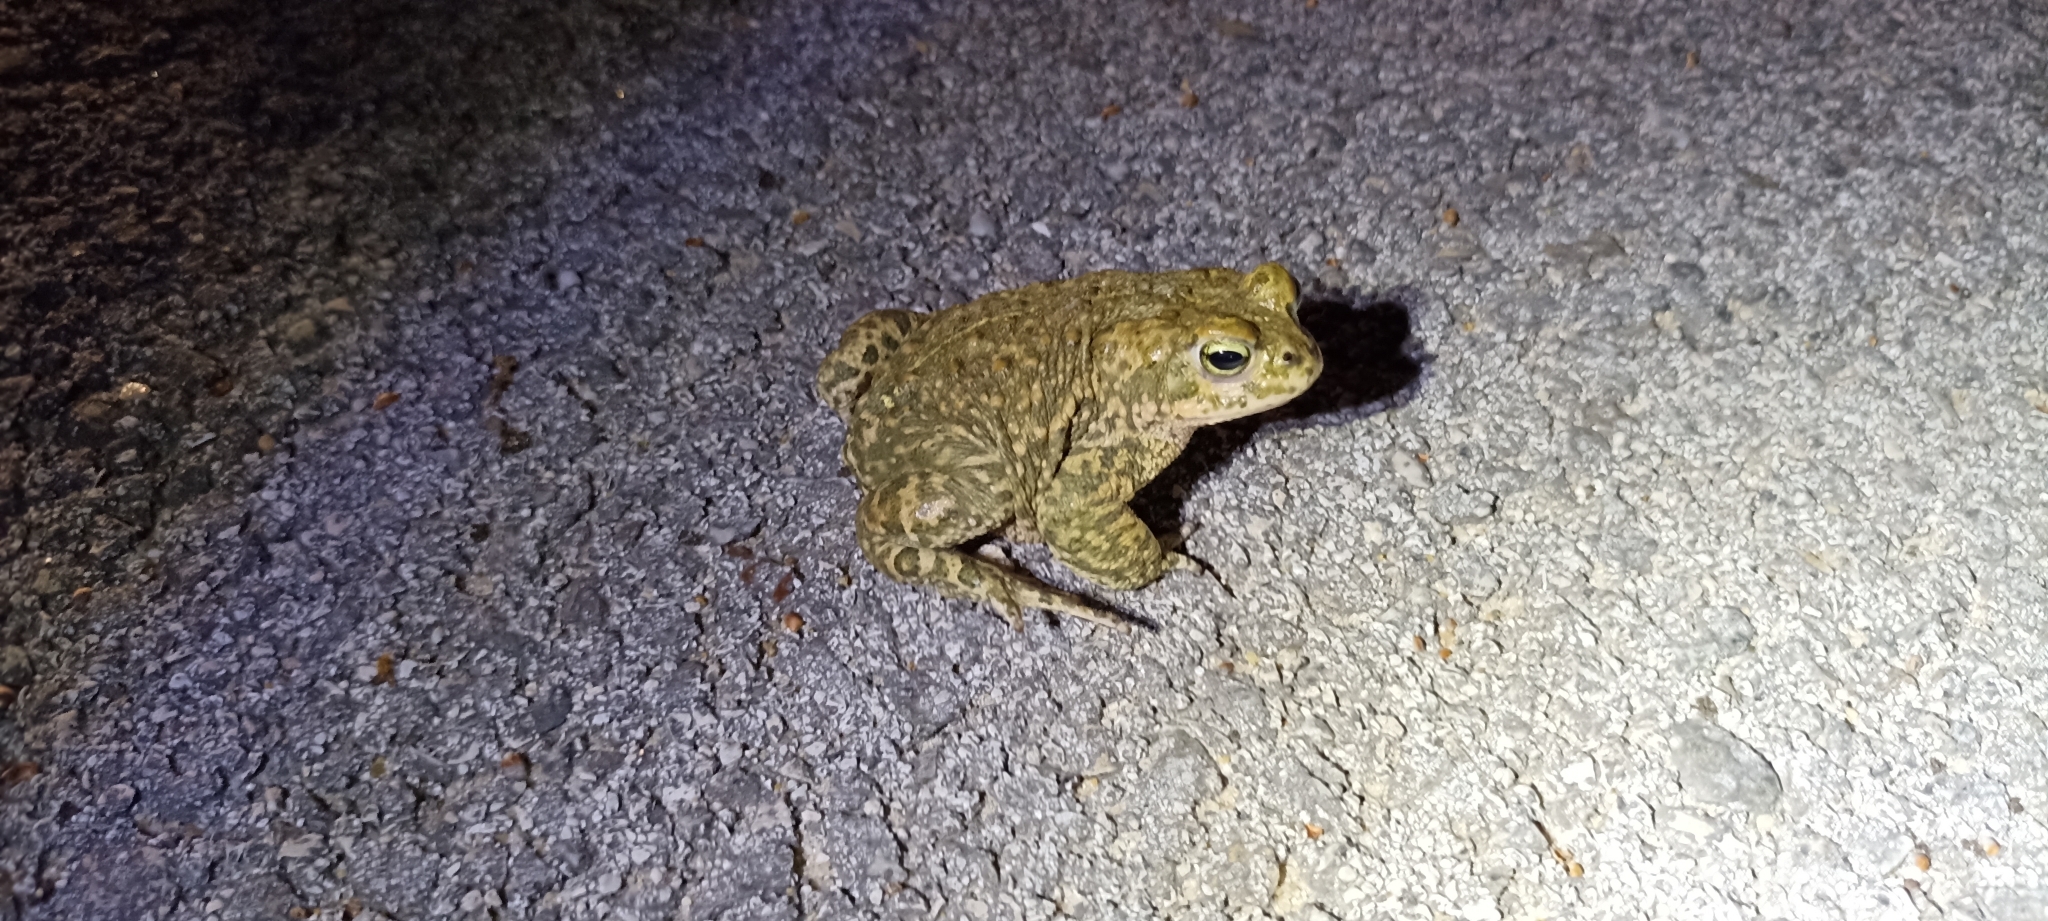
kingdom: Animalia
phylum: Chordata
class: Amphibia
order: Anura
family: Bufonidae
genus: Epidalea
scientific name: Epidalea calamita
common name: Natterjack toad
